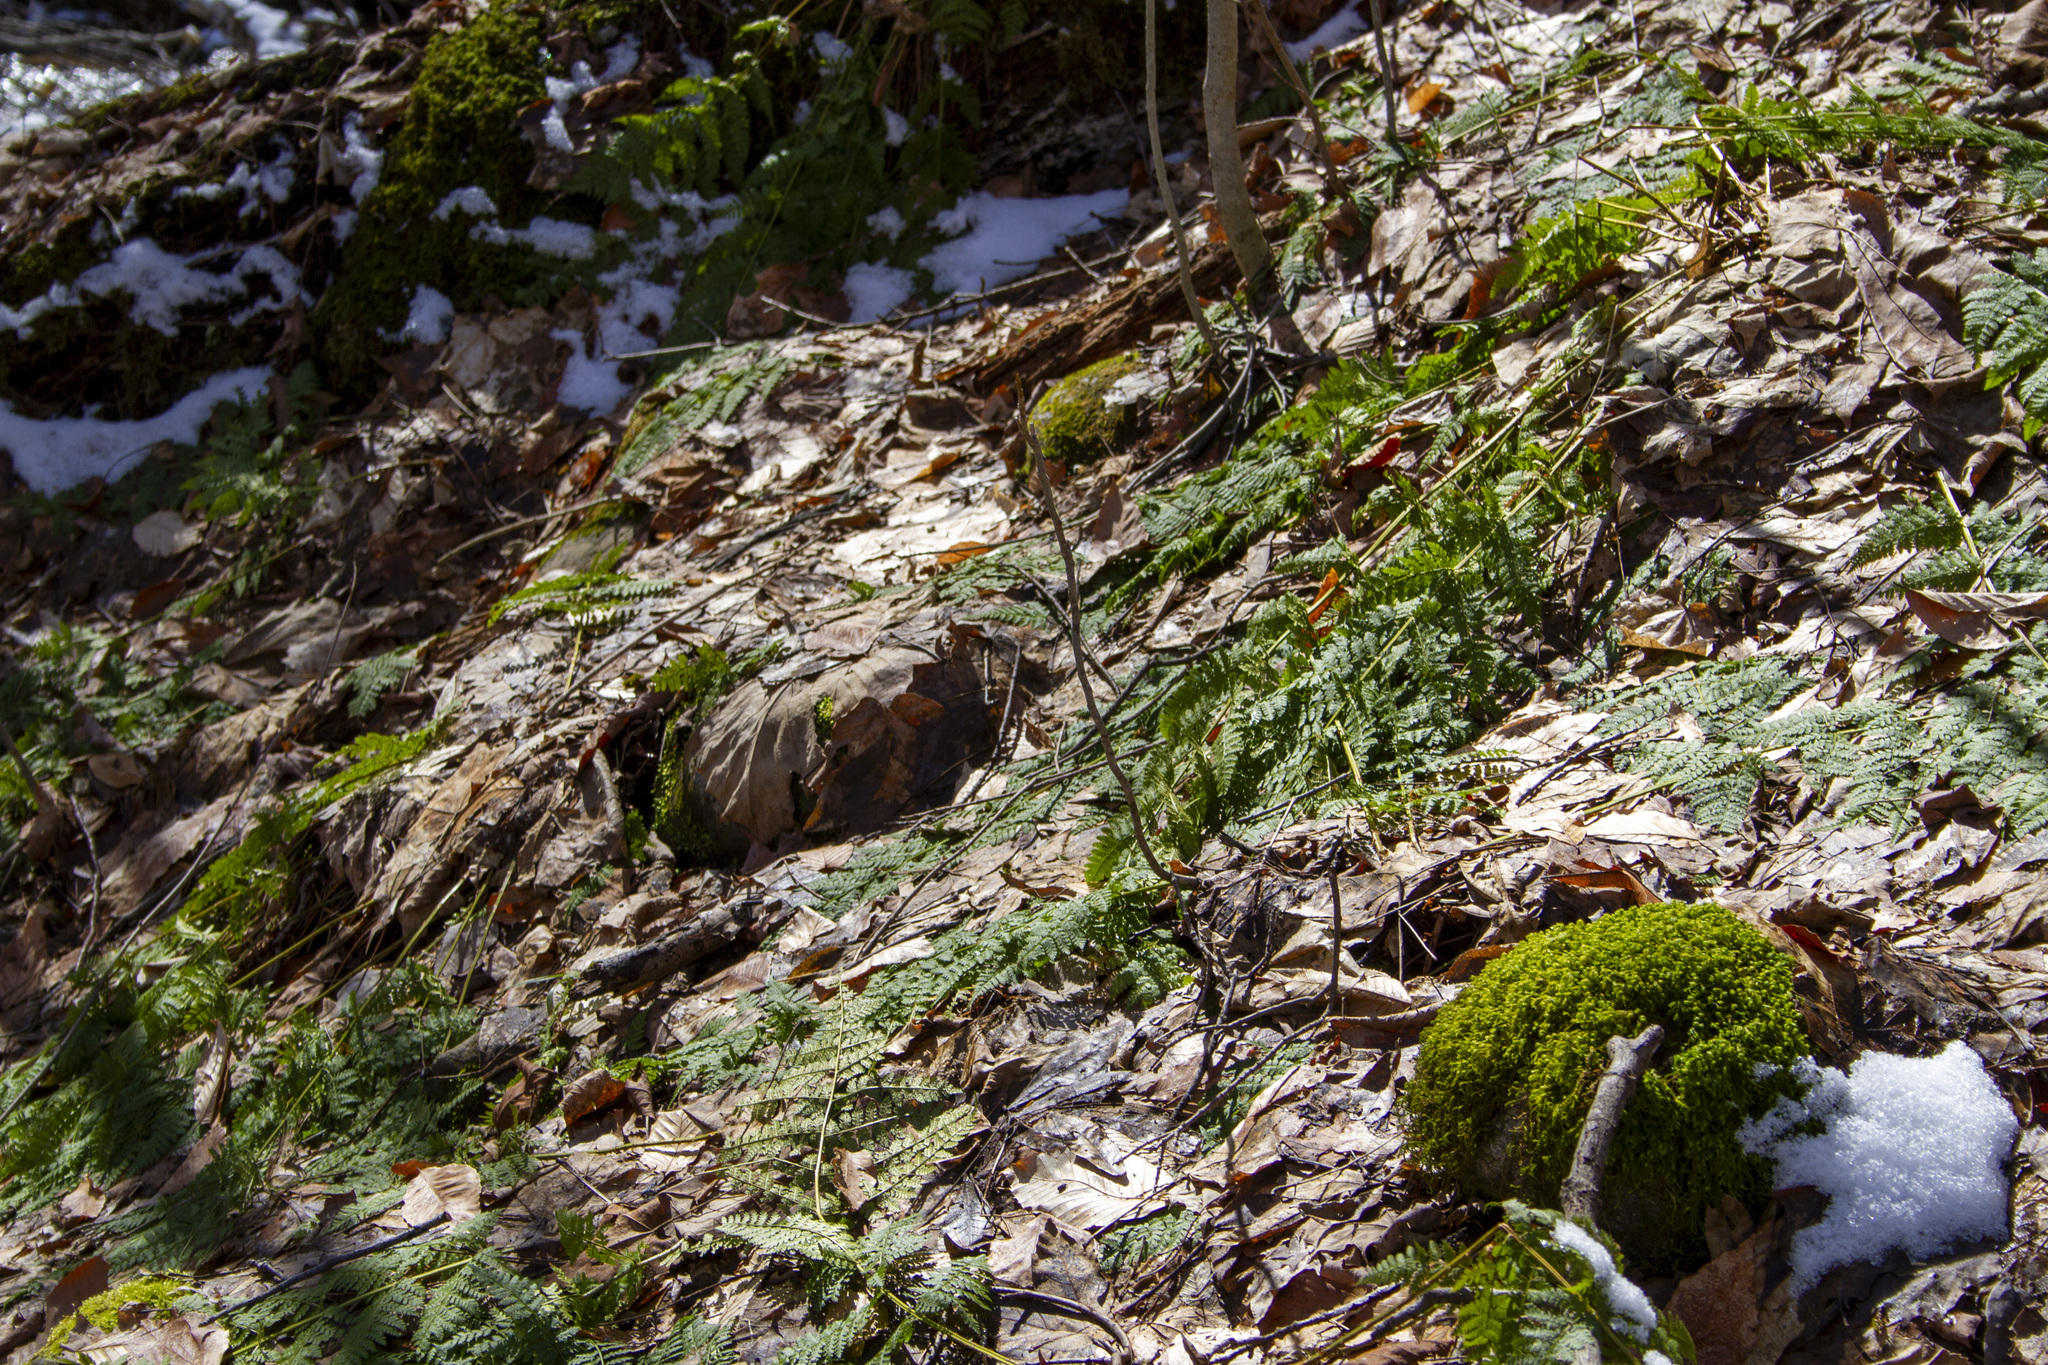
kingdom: Plantae
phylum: Tracheophyta
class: Polypodiopsida
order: Polypodiales
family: Dryopteridaceae
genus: Dryopteris
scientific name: Dryopteris intermedia
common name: Evergreen wood fern
